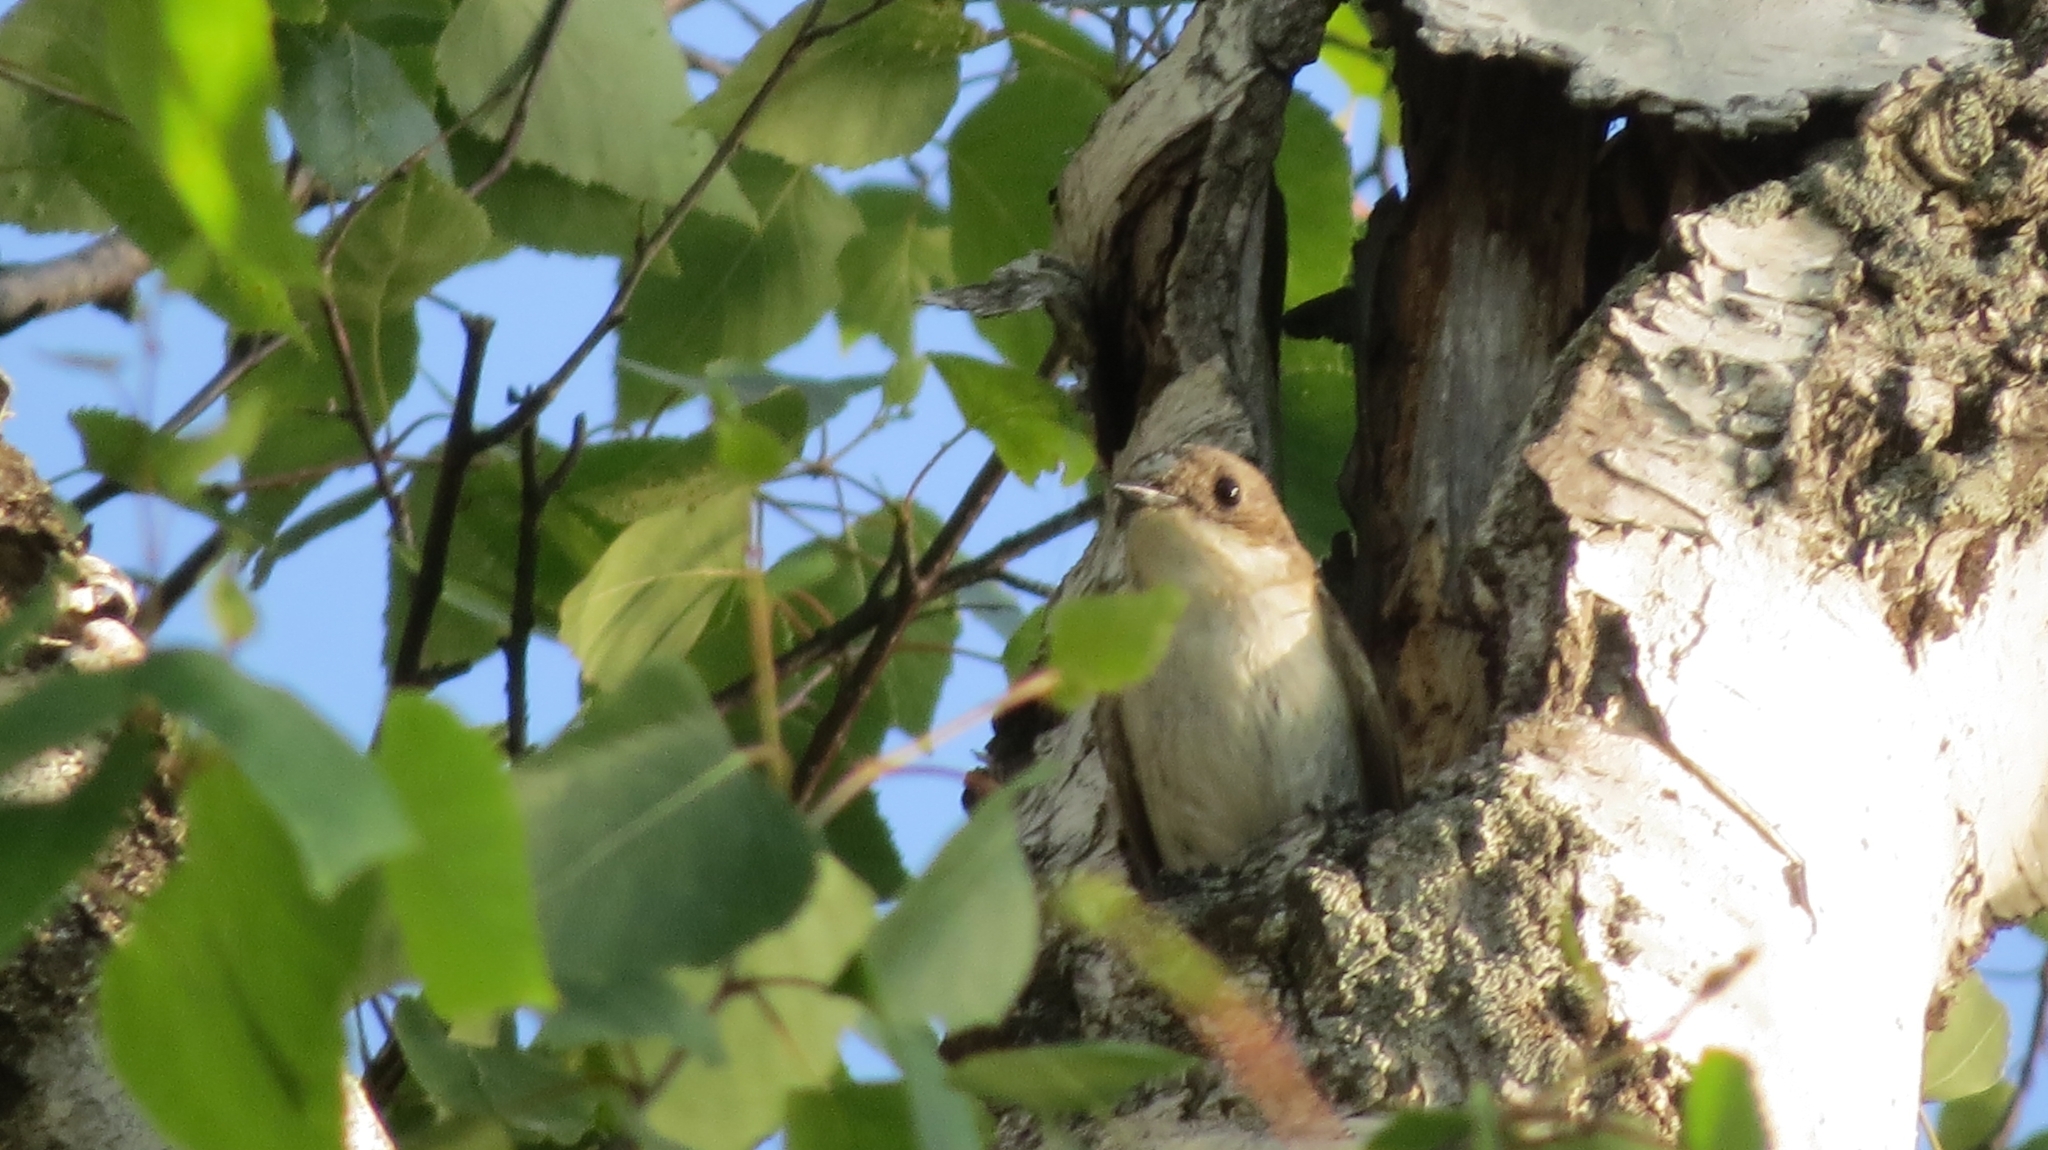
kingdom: Animalia
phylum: Chordata
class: Aves
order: Passeriformes
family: Muscicapidae
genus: Ficedula
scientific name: Ficedula hypoleuca
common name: European pied flycatcher
